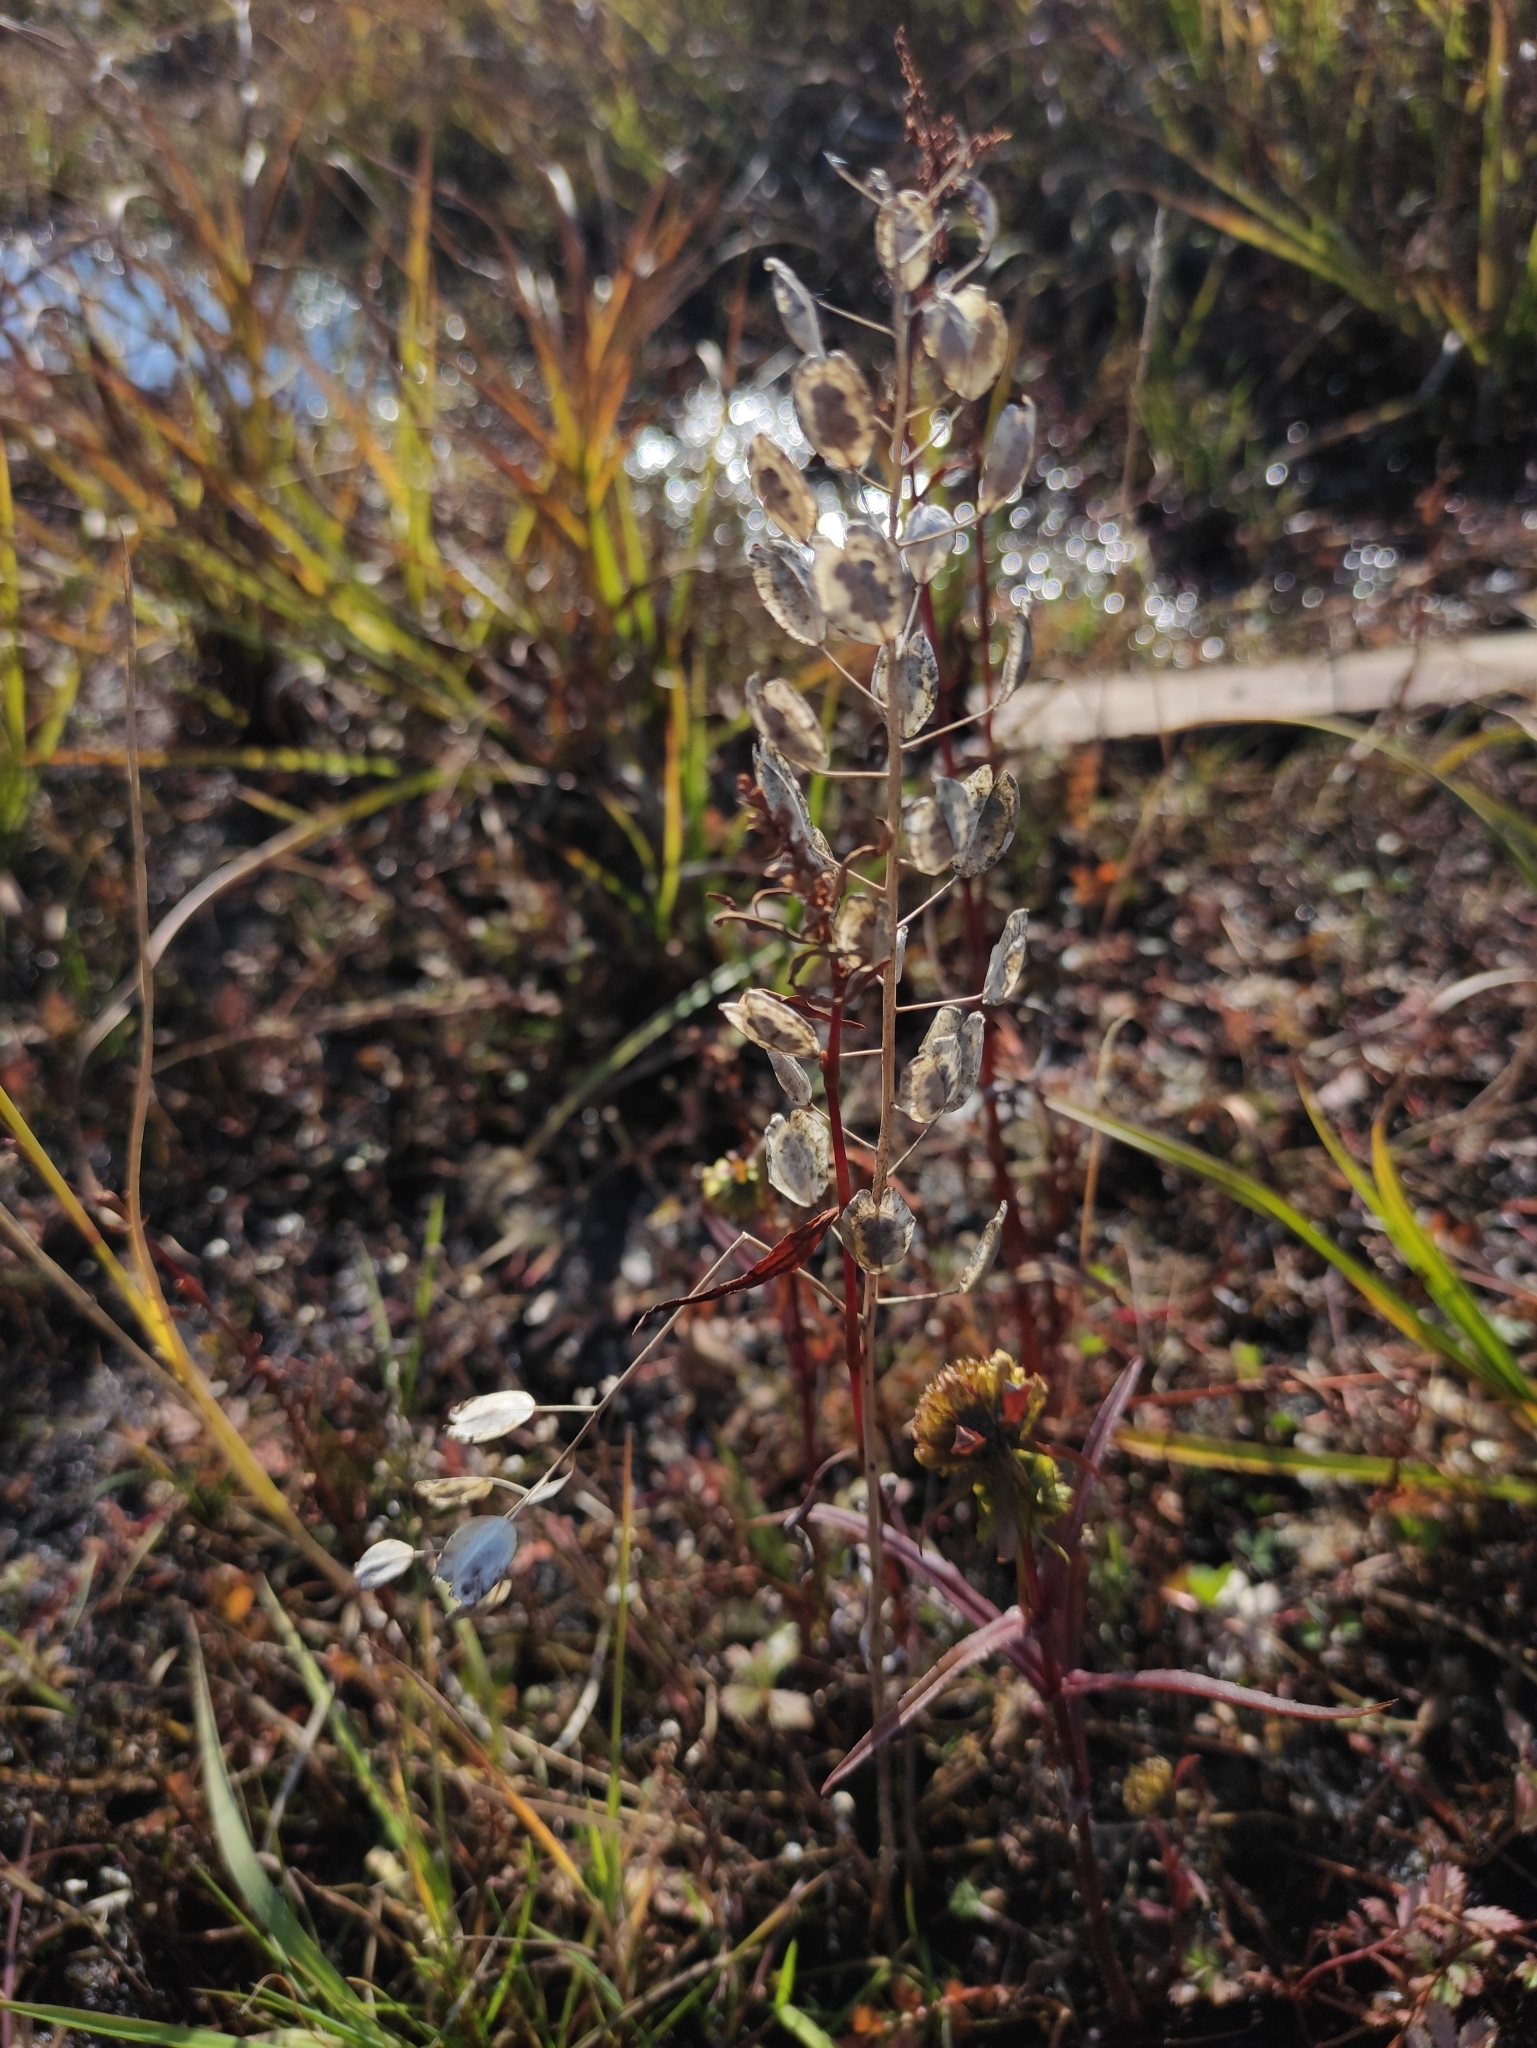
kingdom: Plantae
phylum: Tracheophyta
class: Magnoliopsida
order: Brassicales
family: Brassicaceae
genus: Thlaspi
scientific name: Thlaspi arvense
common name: Field pennycress
